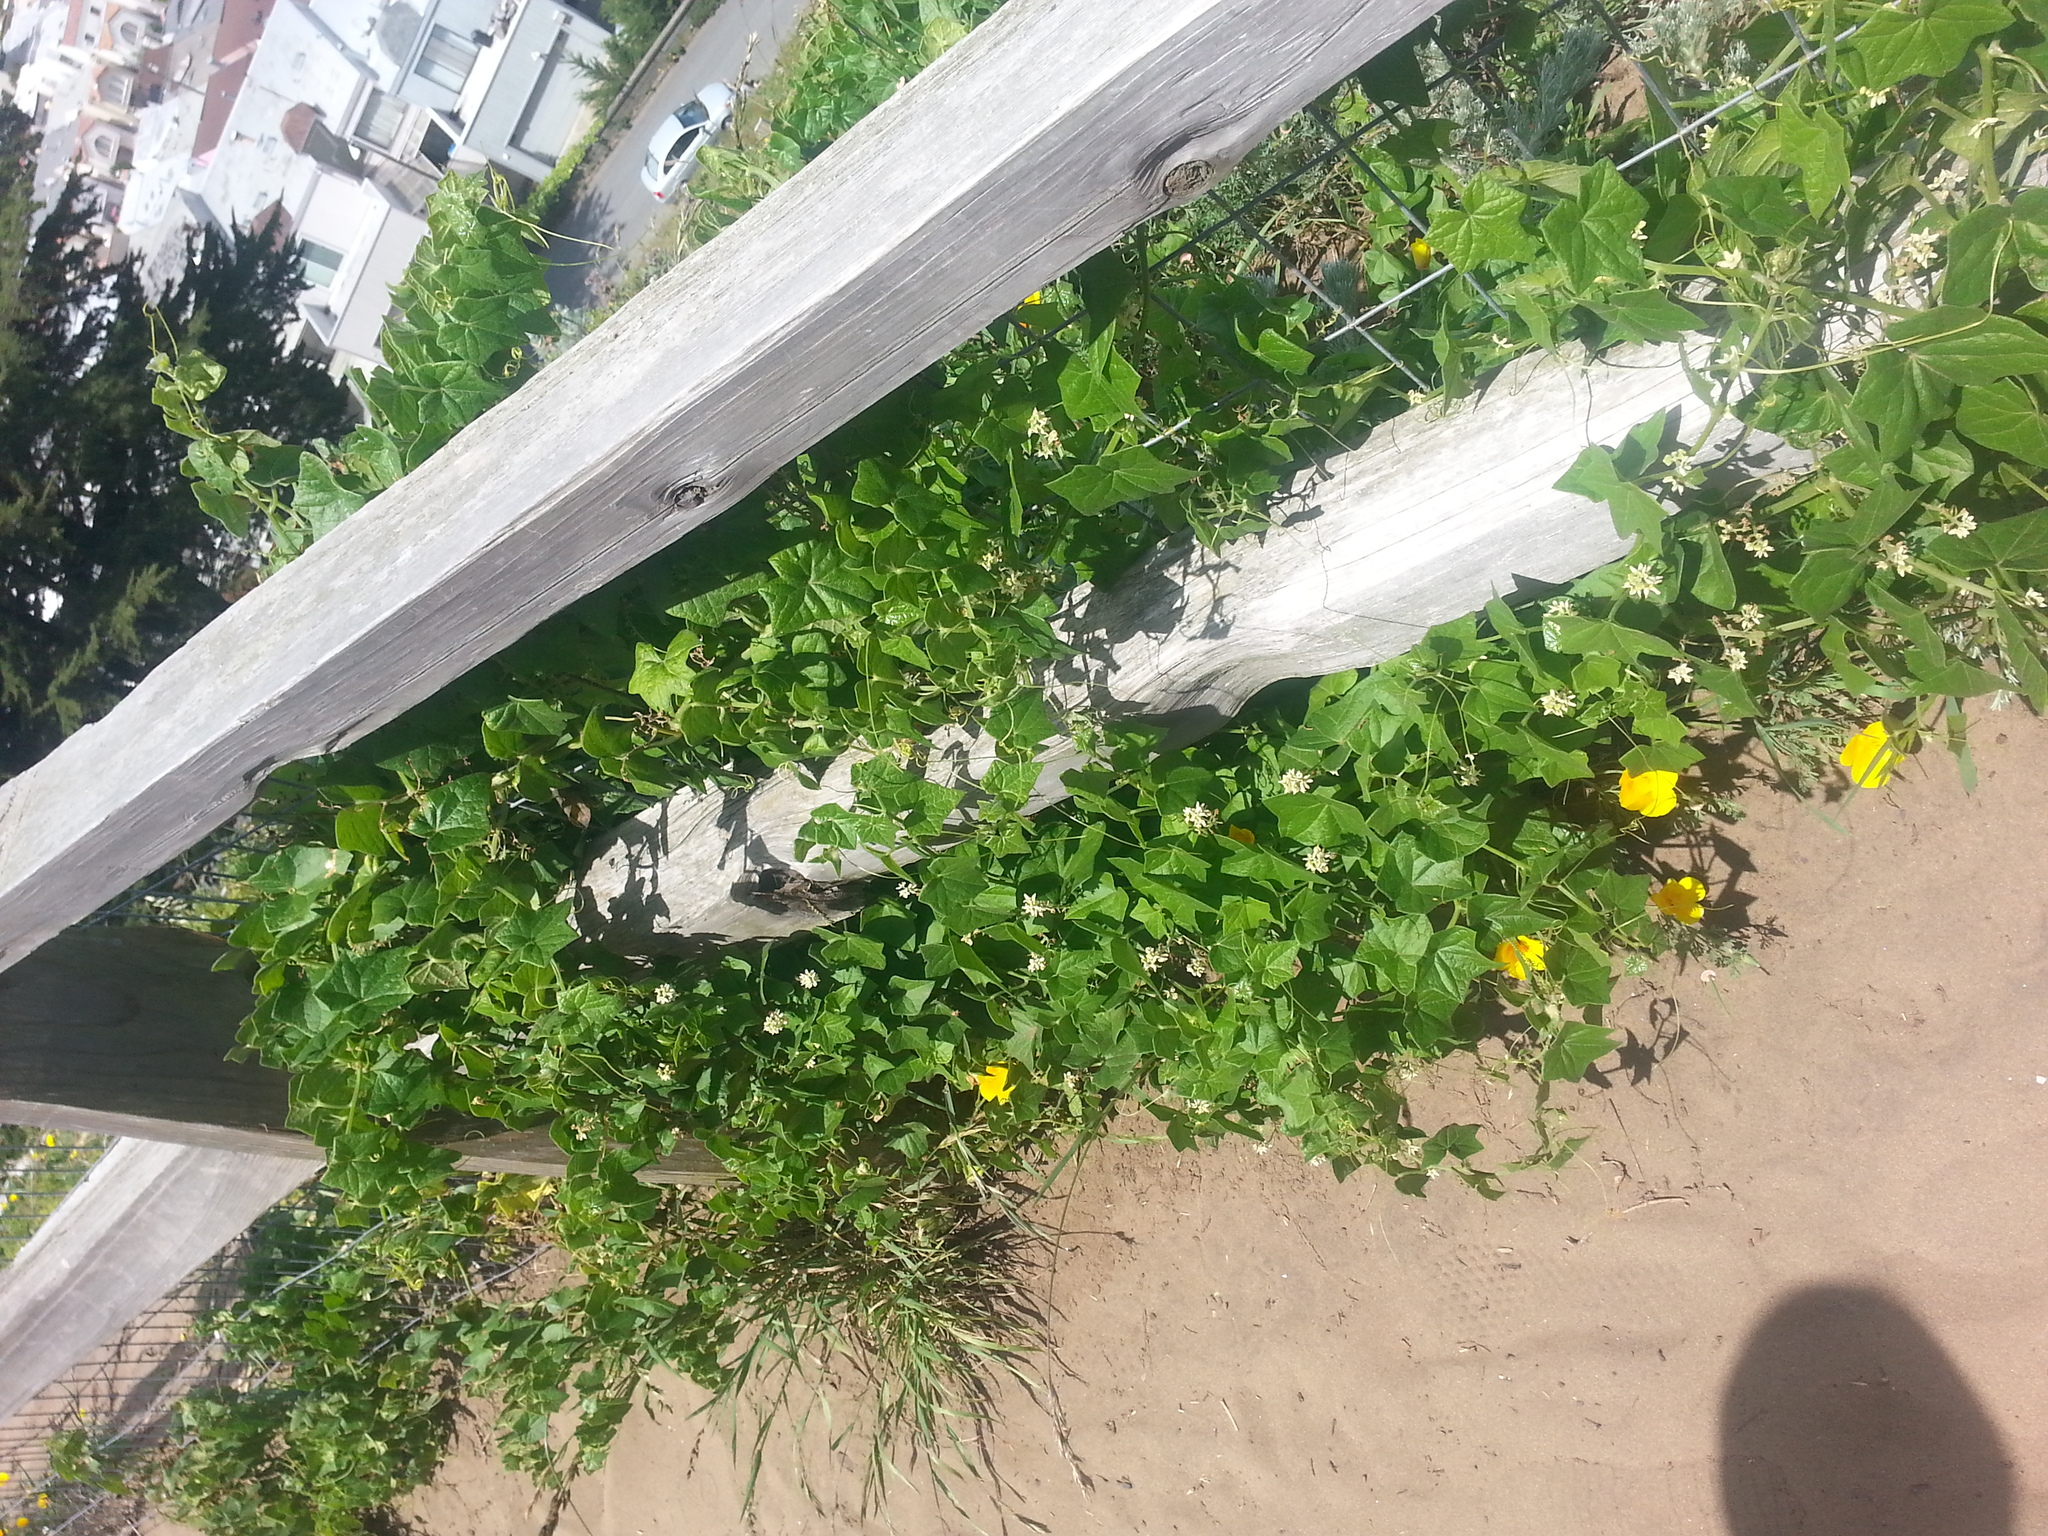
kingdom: Plantae
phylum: Tracheophyta
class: Magnoliopsida
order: Cucurbitales
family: Cucurbitaceae
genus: Marah
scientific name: Marah fabacea
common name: California manroot
